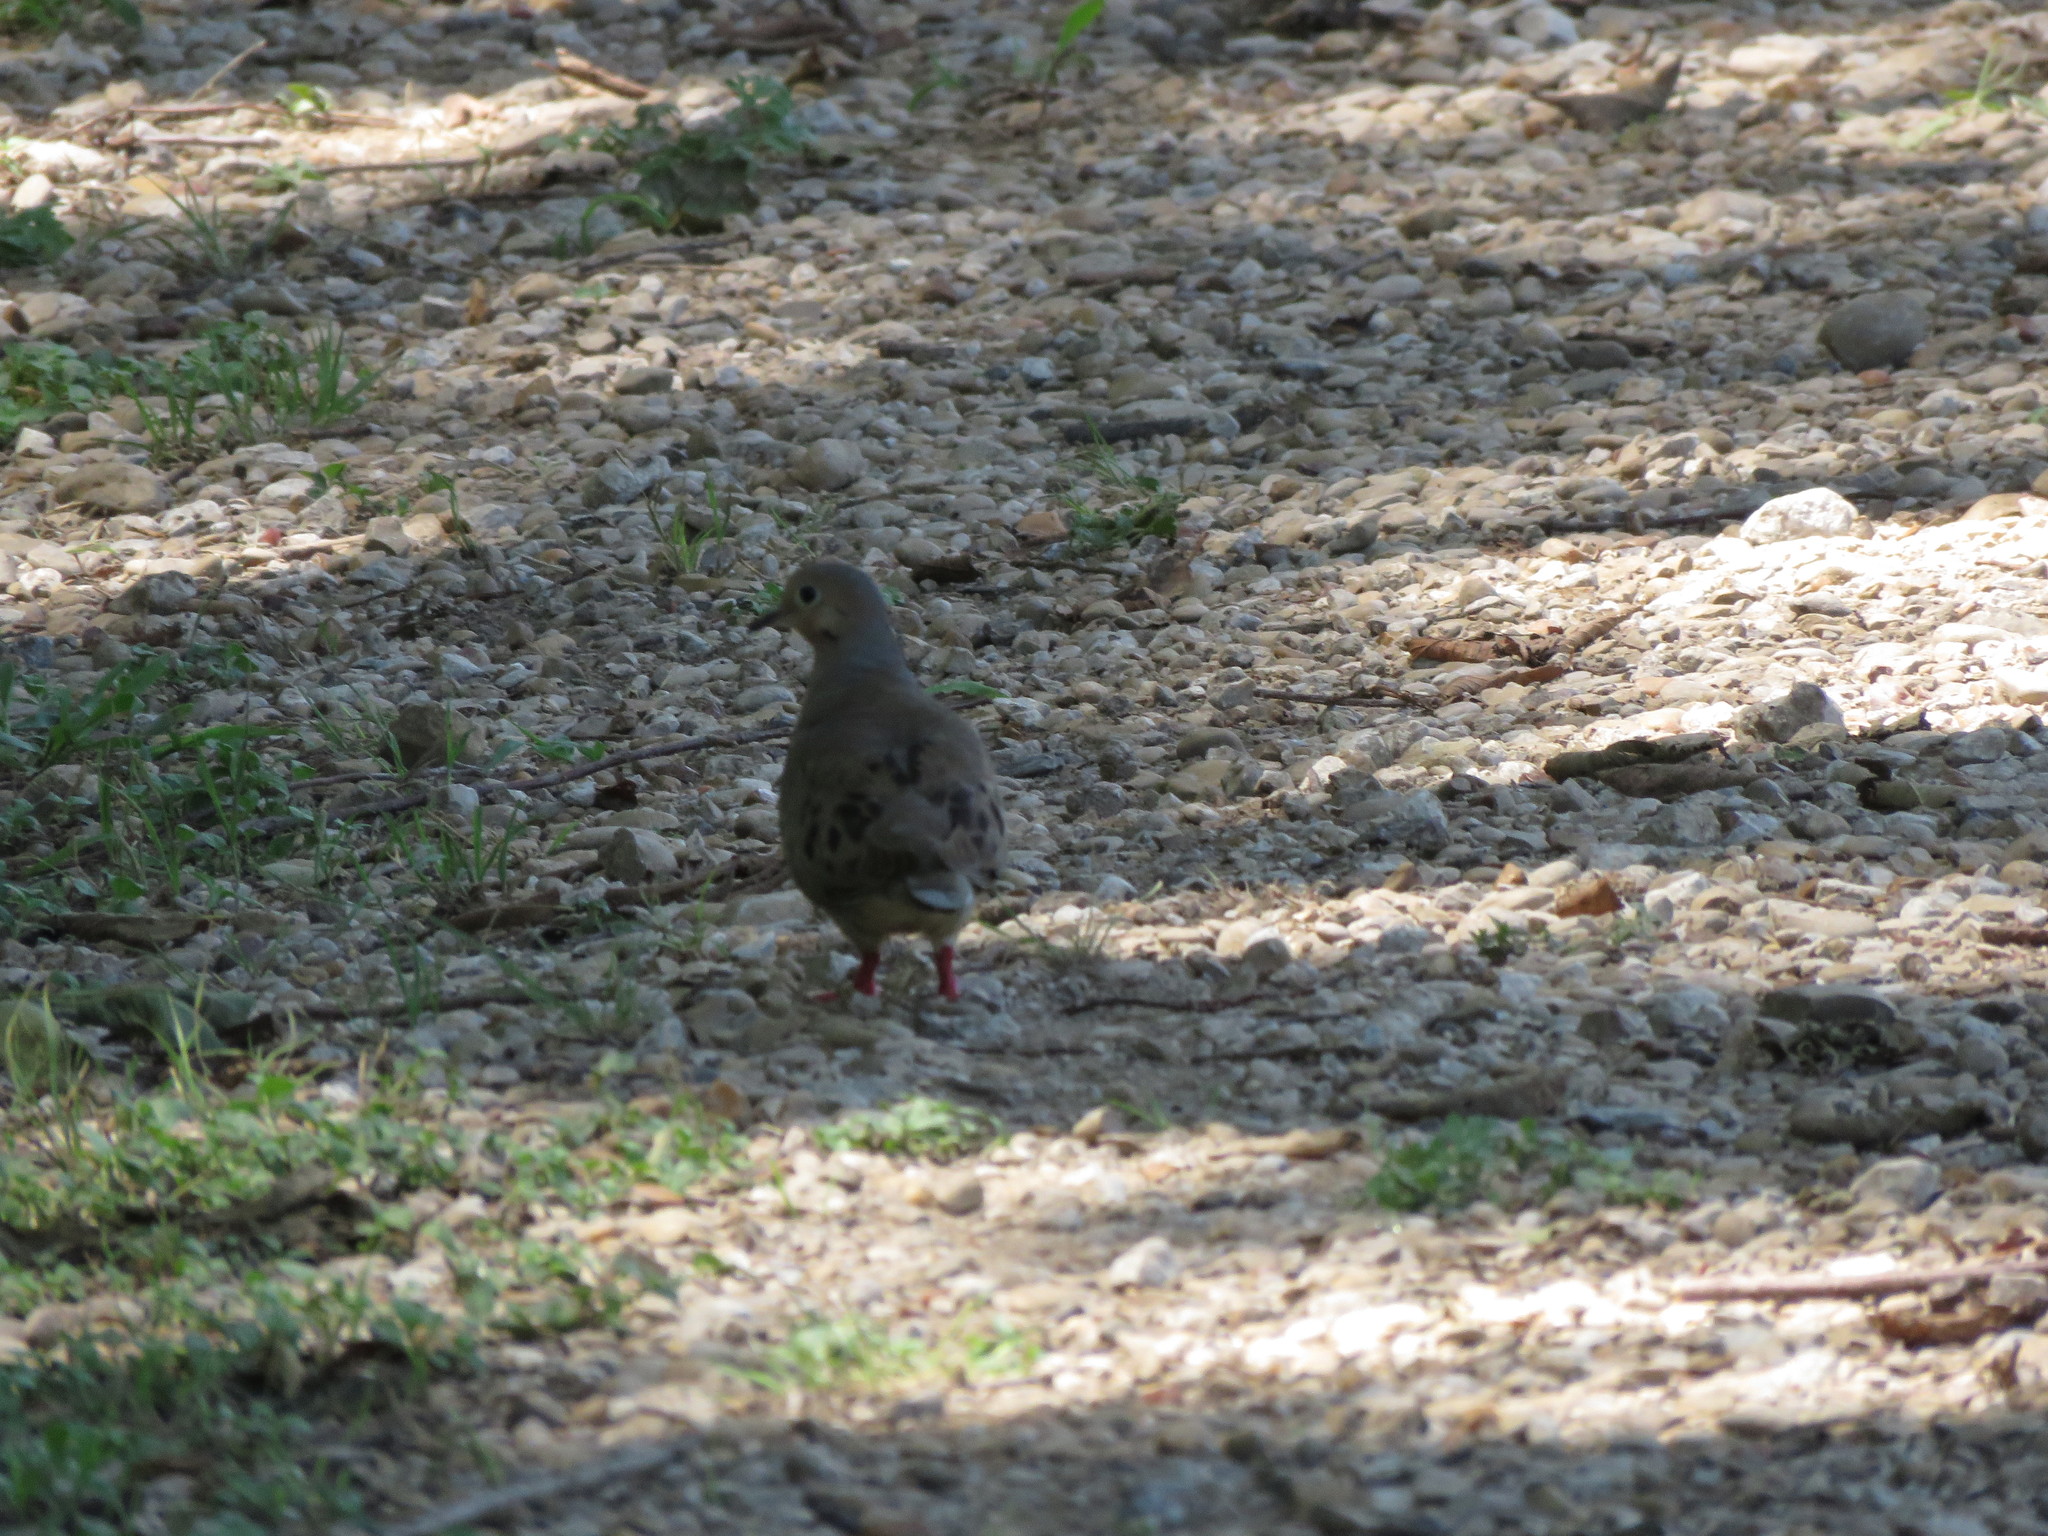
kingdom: Animalia
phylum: Chordata
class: Aves
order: Columbiformes
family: Columbidae
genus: Zenaida
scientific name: Zenaida macroura
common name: Mourning dove
